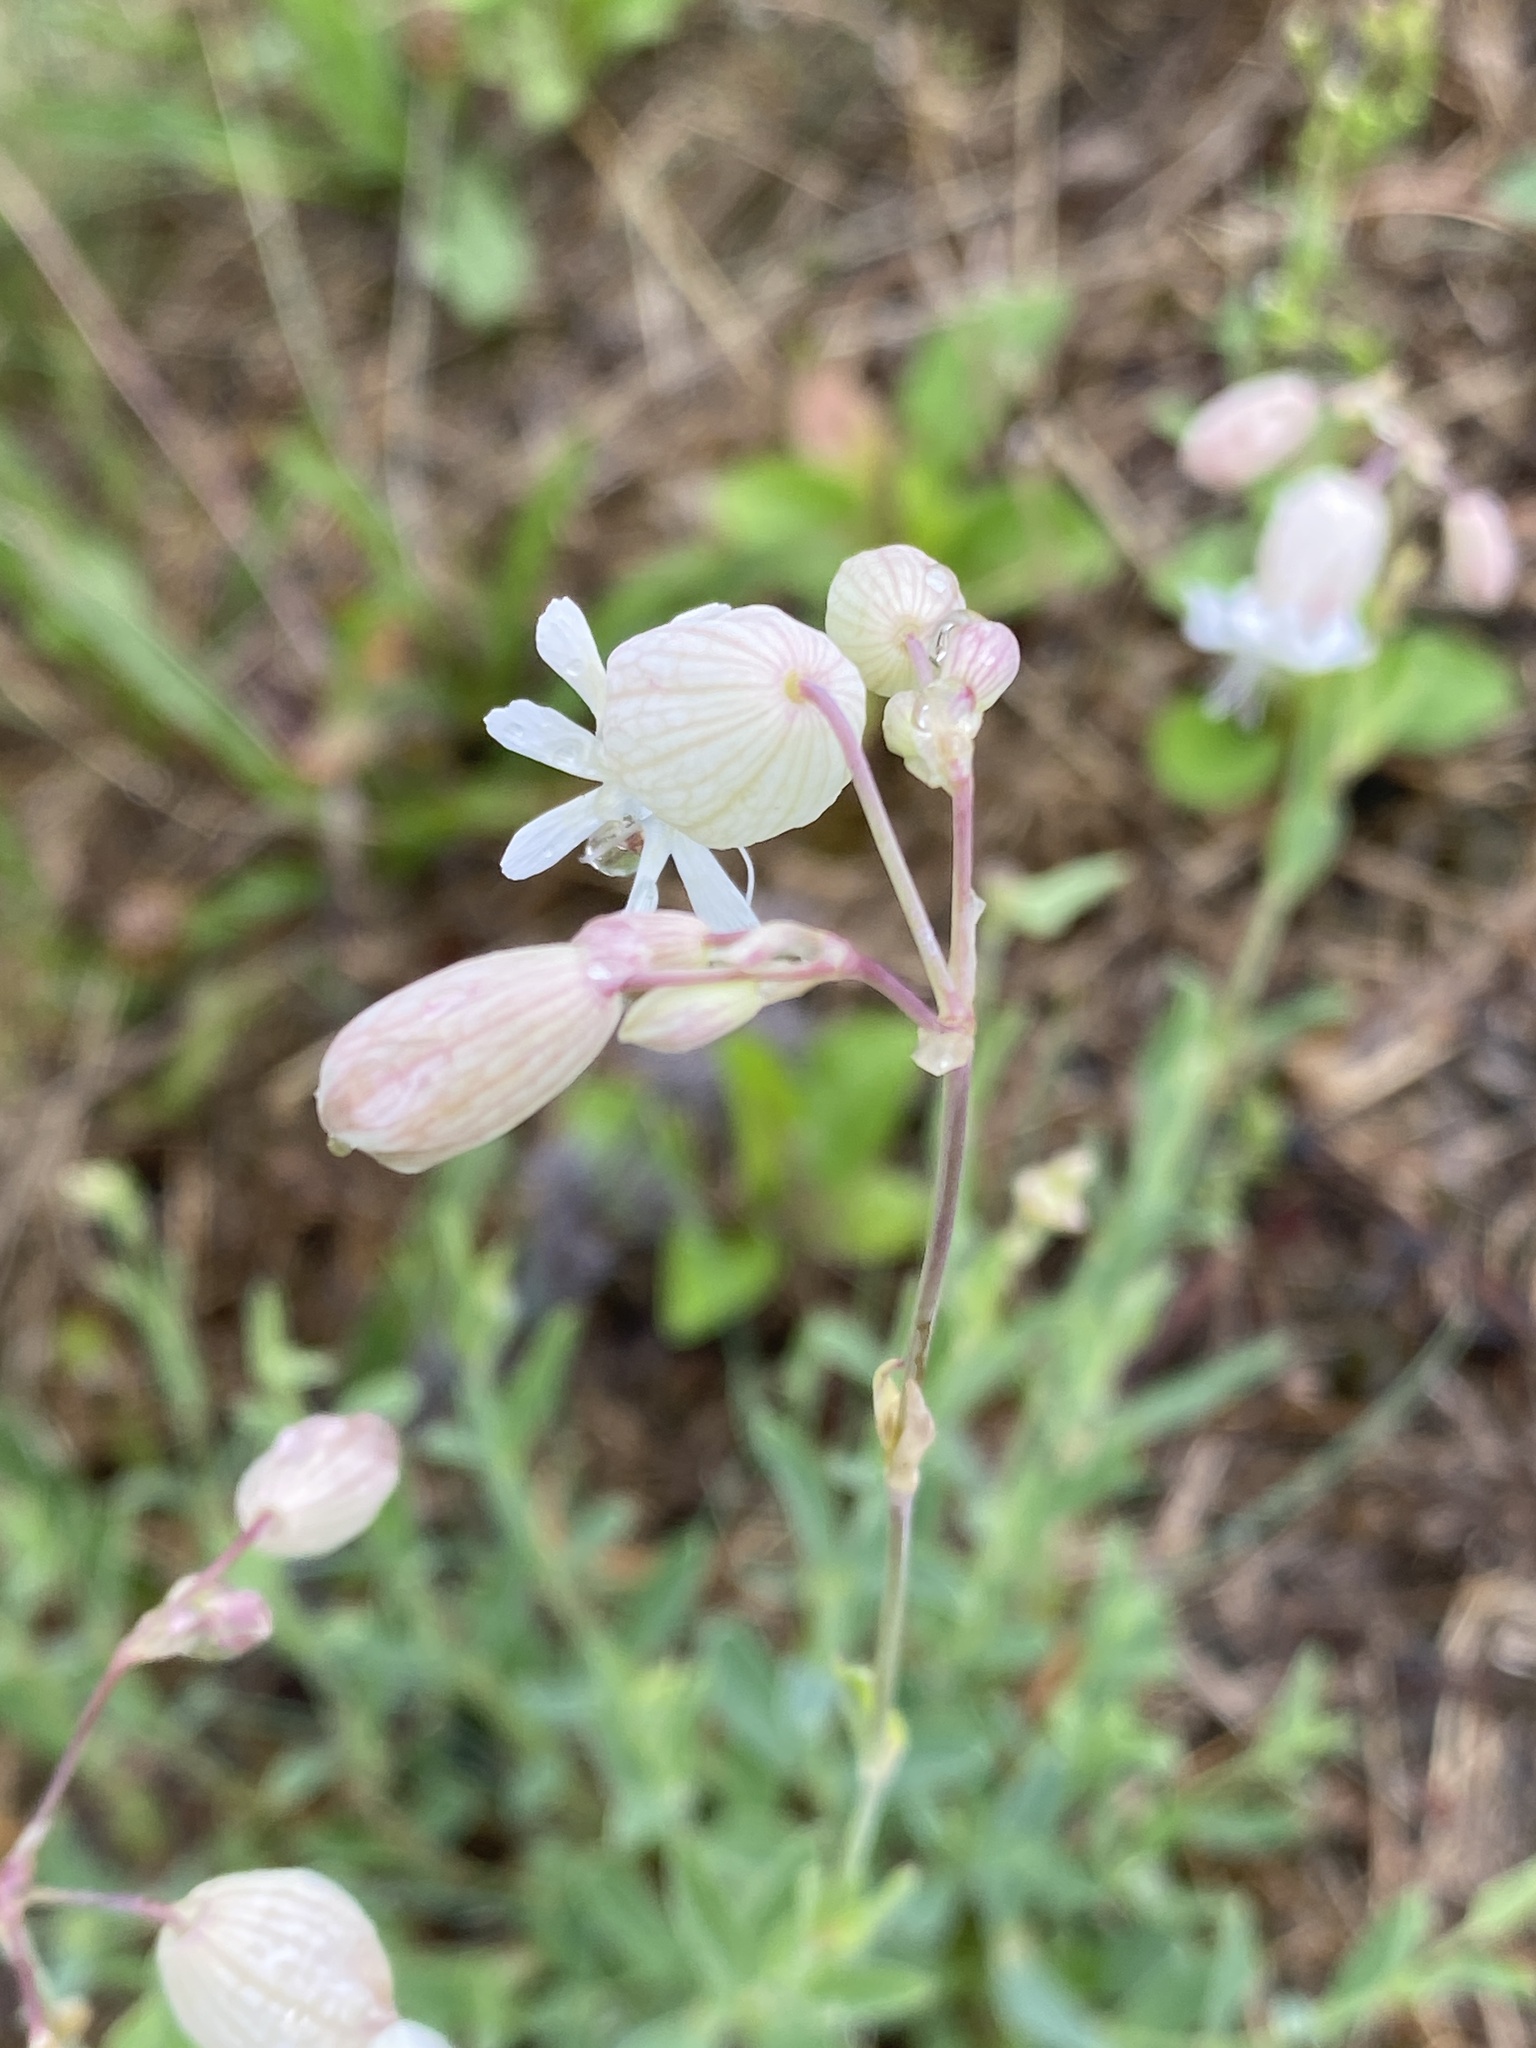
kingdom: Plantae
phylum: Tracheophyta
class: Magnoliopsida
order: Caryophyllales
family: Caryophyllaceae
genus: Silene
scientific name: Silene vulgaris
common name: Bladder campion
